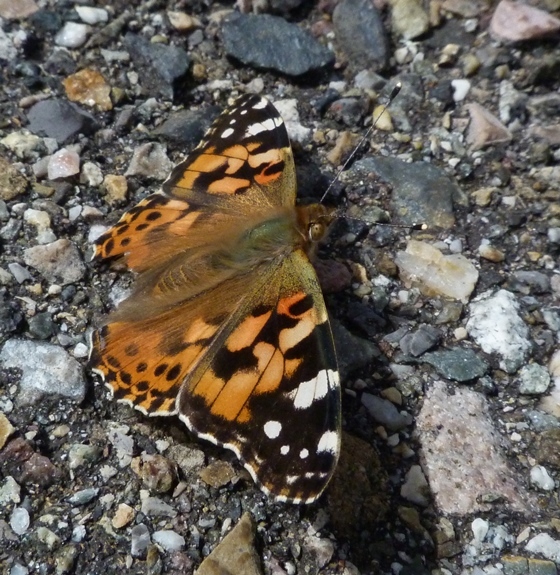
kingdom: Animalia
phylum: Arthropoda
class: Insecta
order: Lepidoptera
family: Nymphalidae
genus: Vanessa
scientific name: Vanessa cardui
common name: Painted lady
